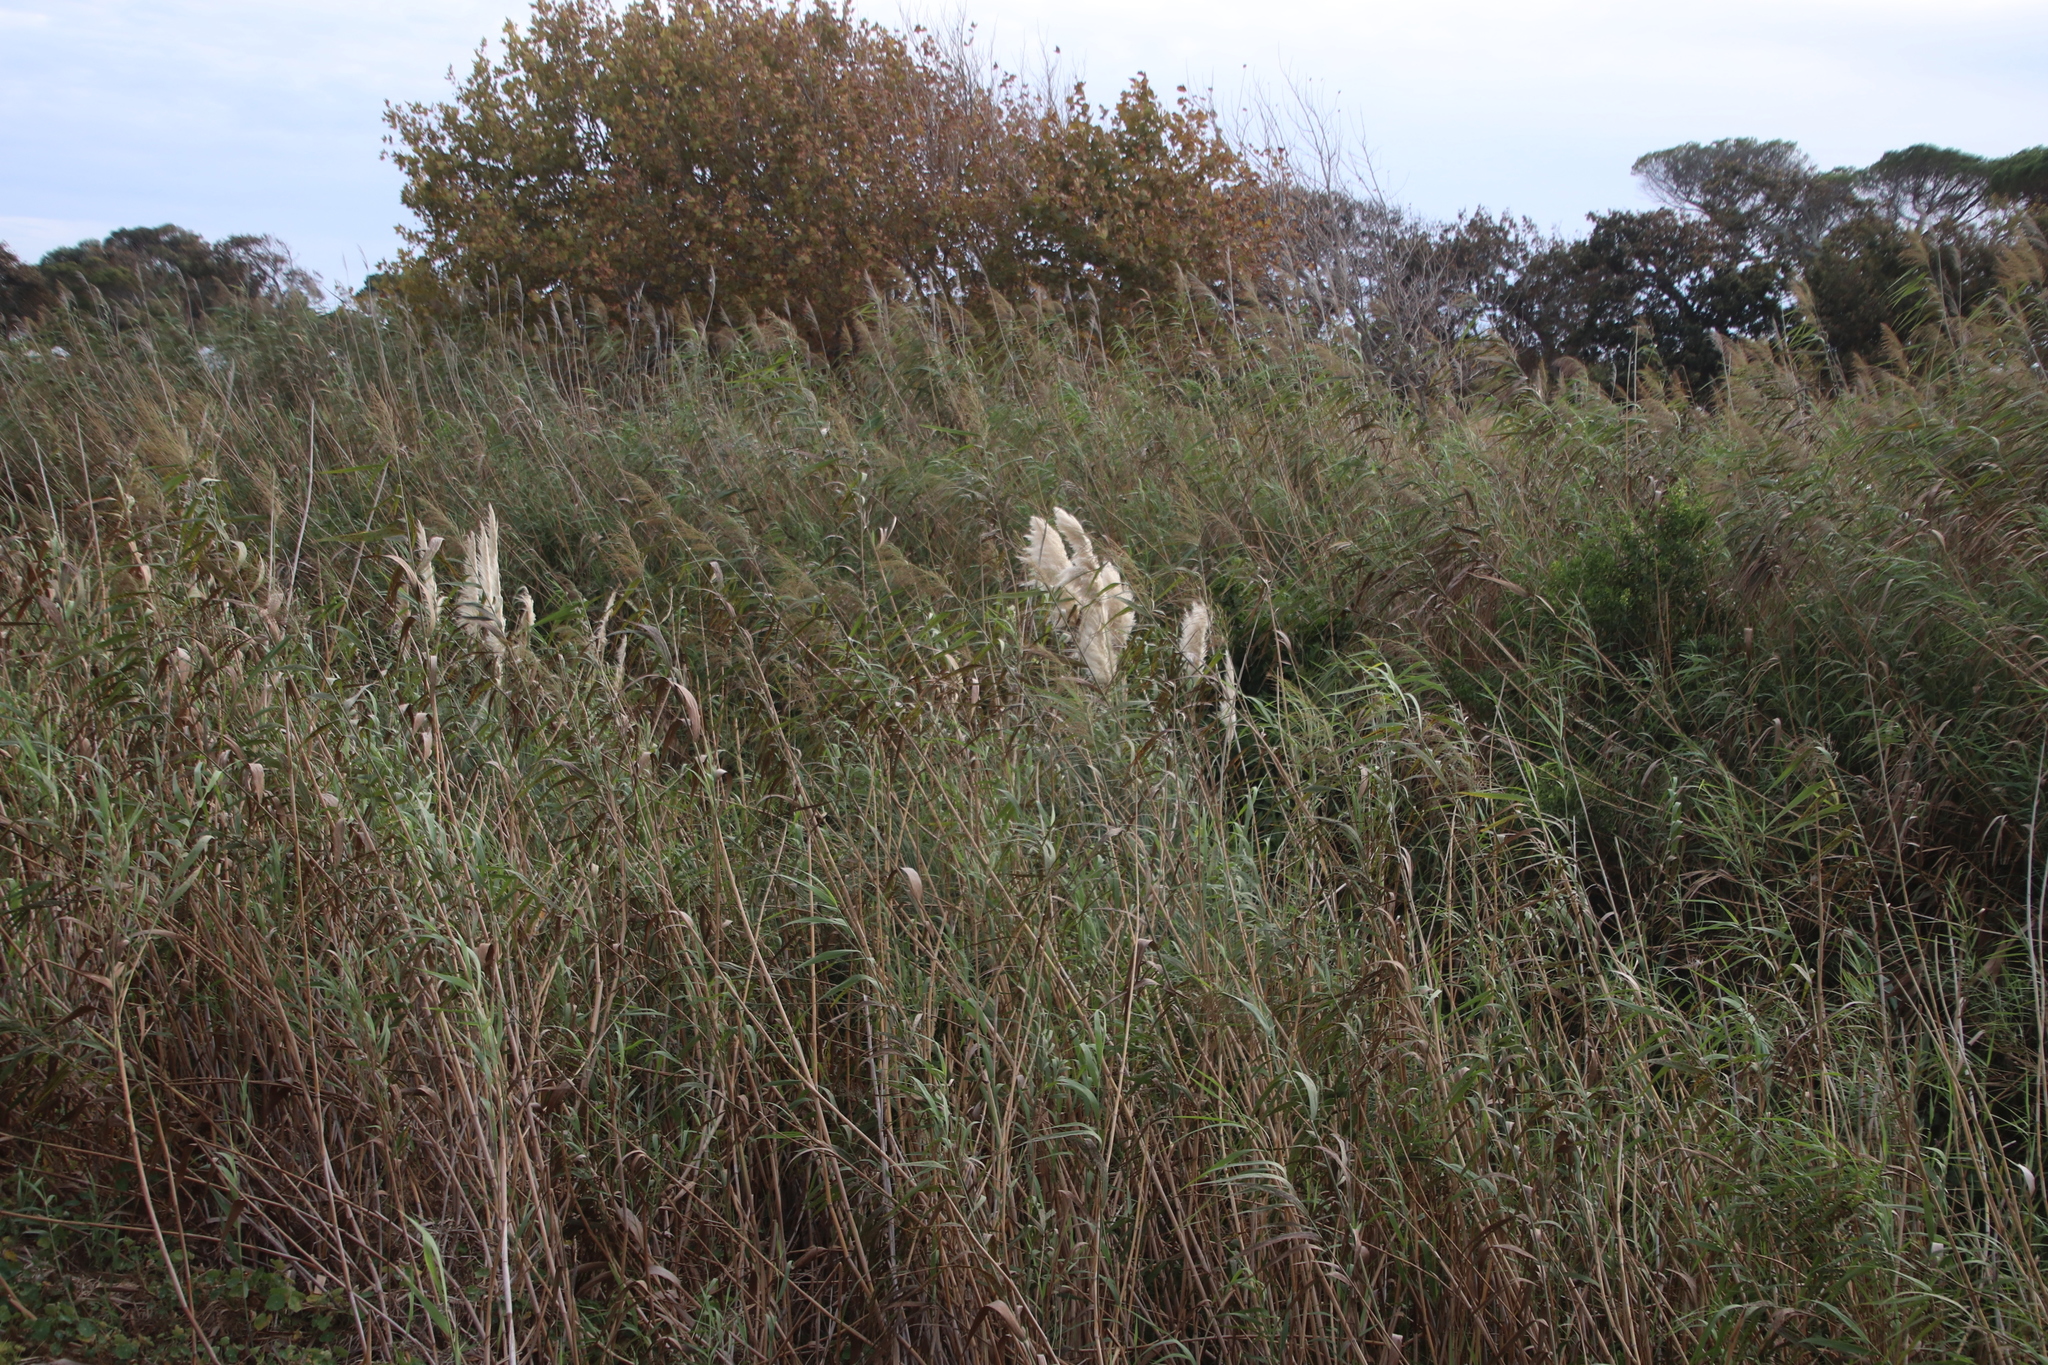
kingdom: Plantae
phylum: Tracheophyta
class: Liliopsida
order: Poales
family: Poaceae
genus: Phragmites
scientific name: Phragmites australis
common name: Common reed
